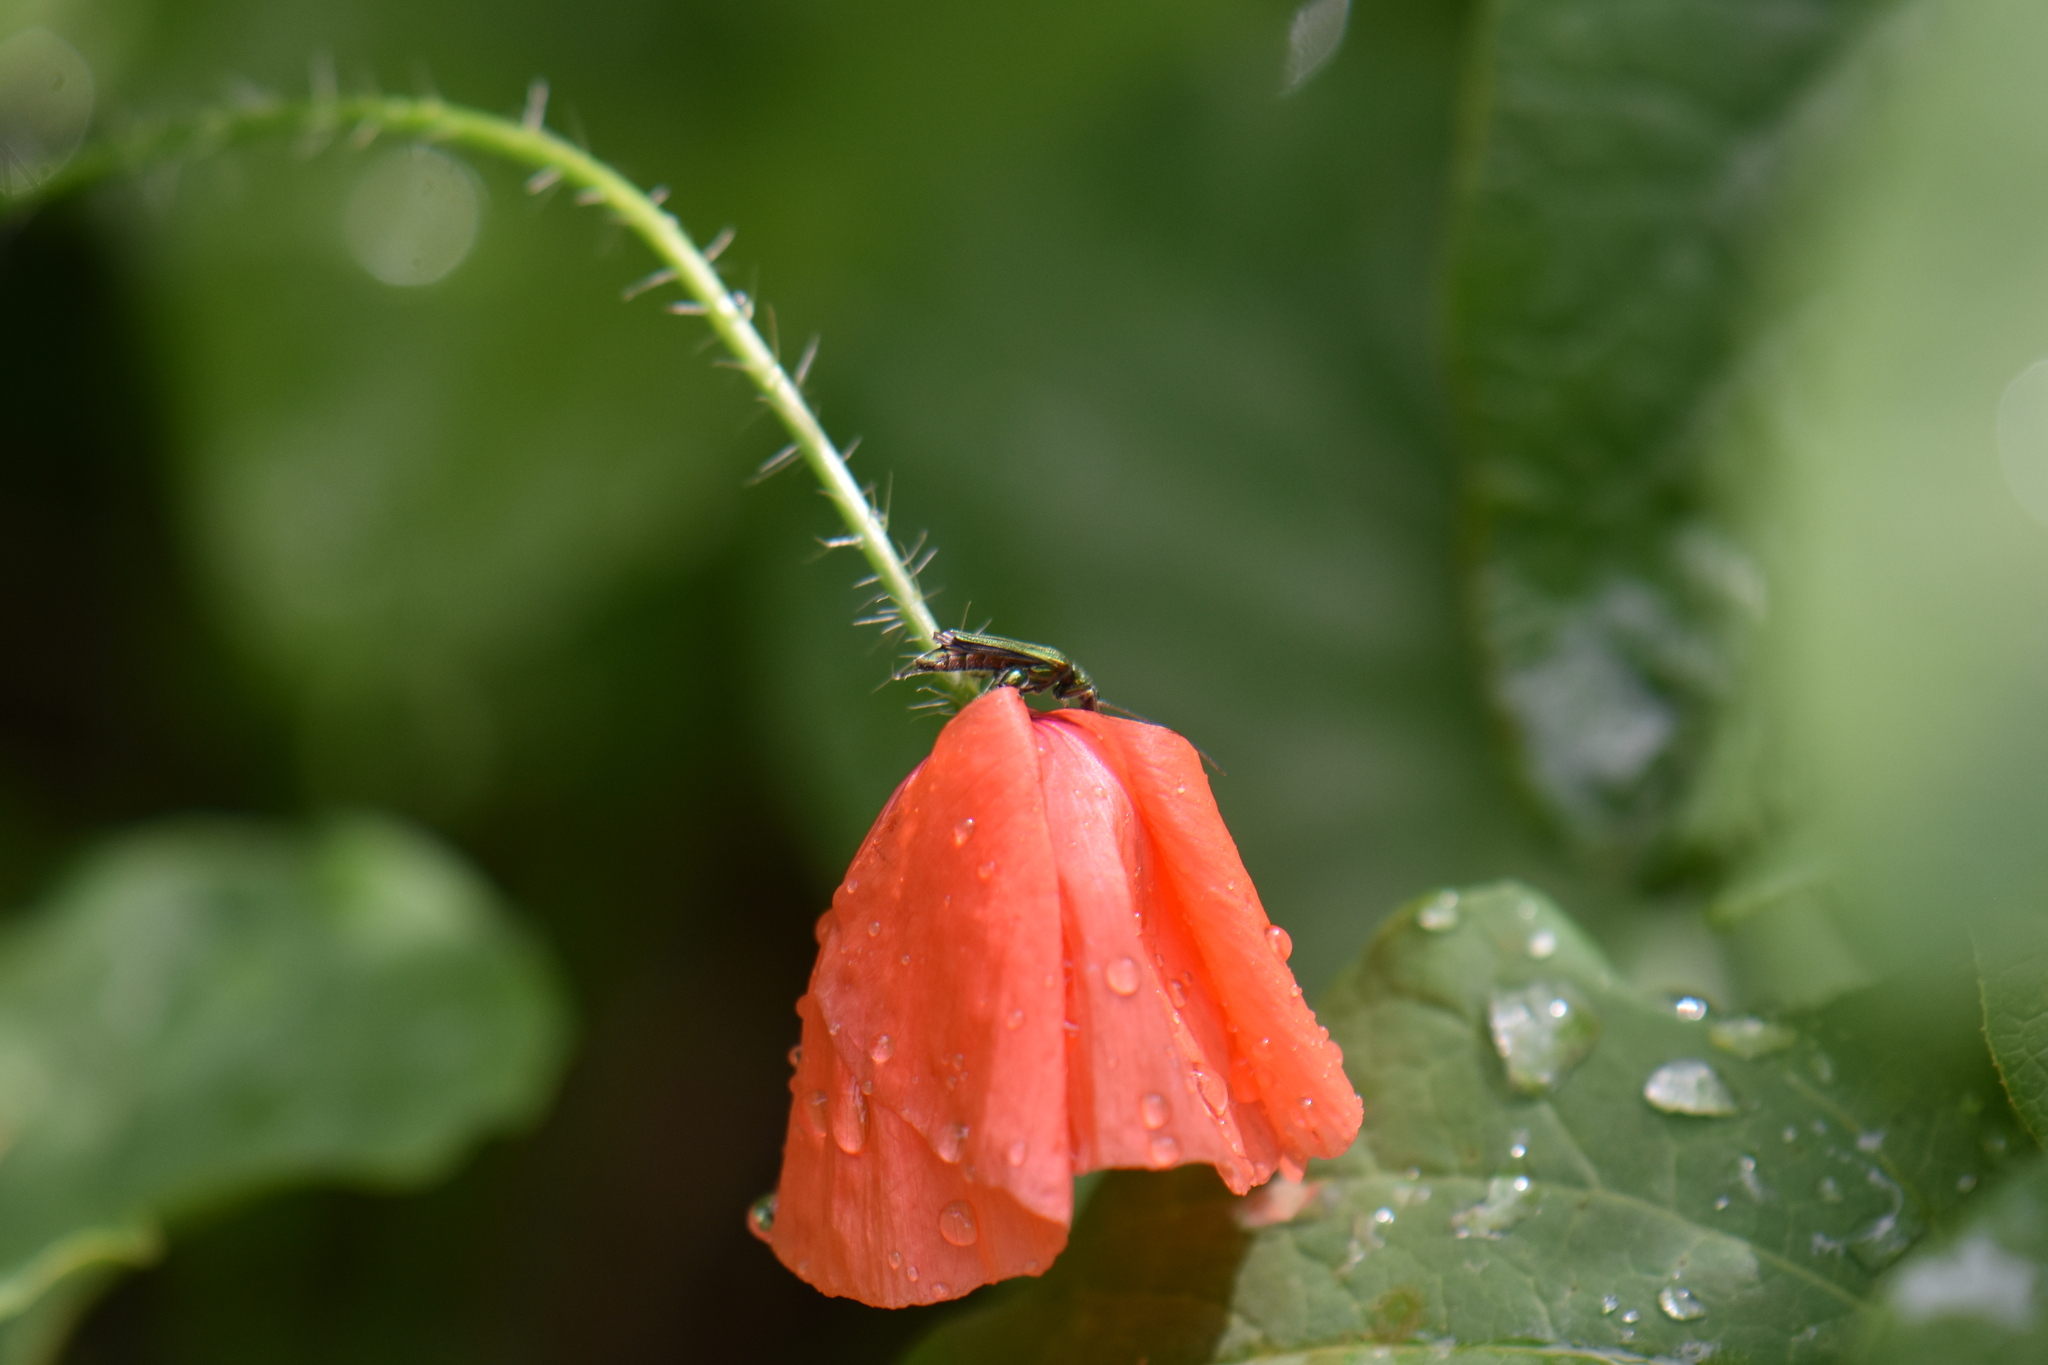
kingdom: Animalia
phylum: Arthropoda
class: Insecta
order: Coleoptera
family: Oedemeridae
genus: Oedemera
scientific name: Oedemera nobilis
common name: Swollen-thighed beetle
